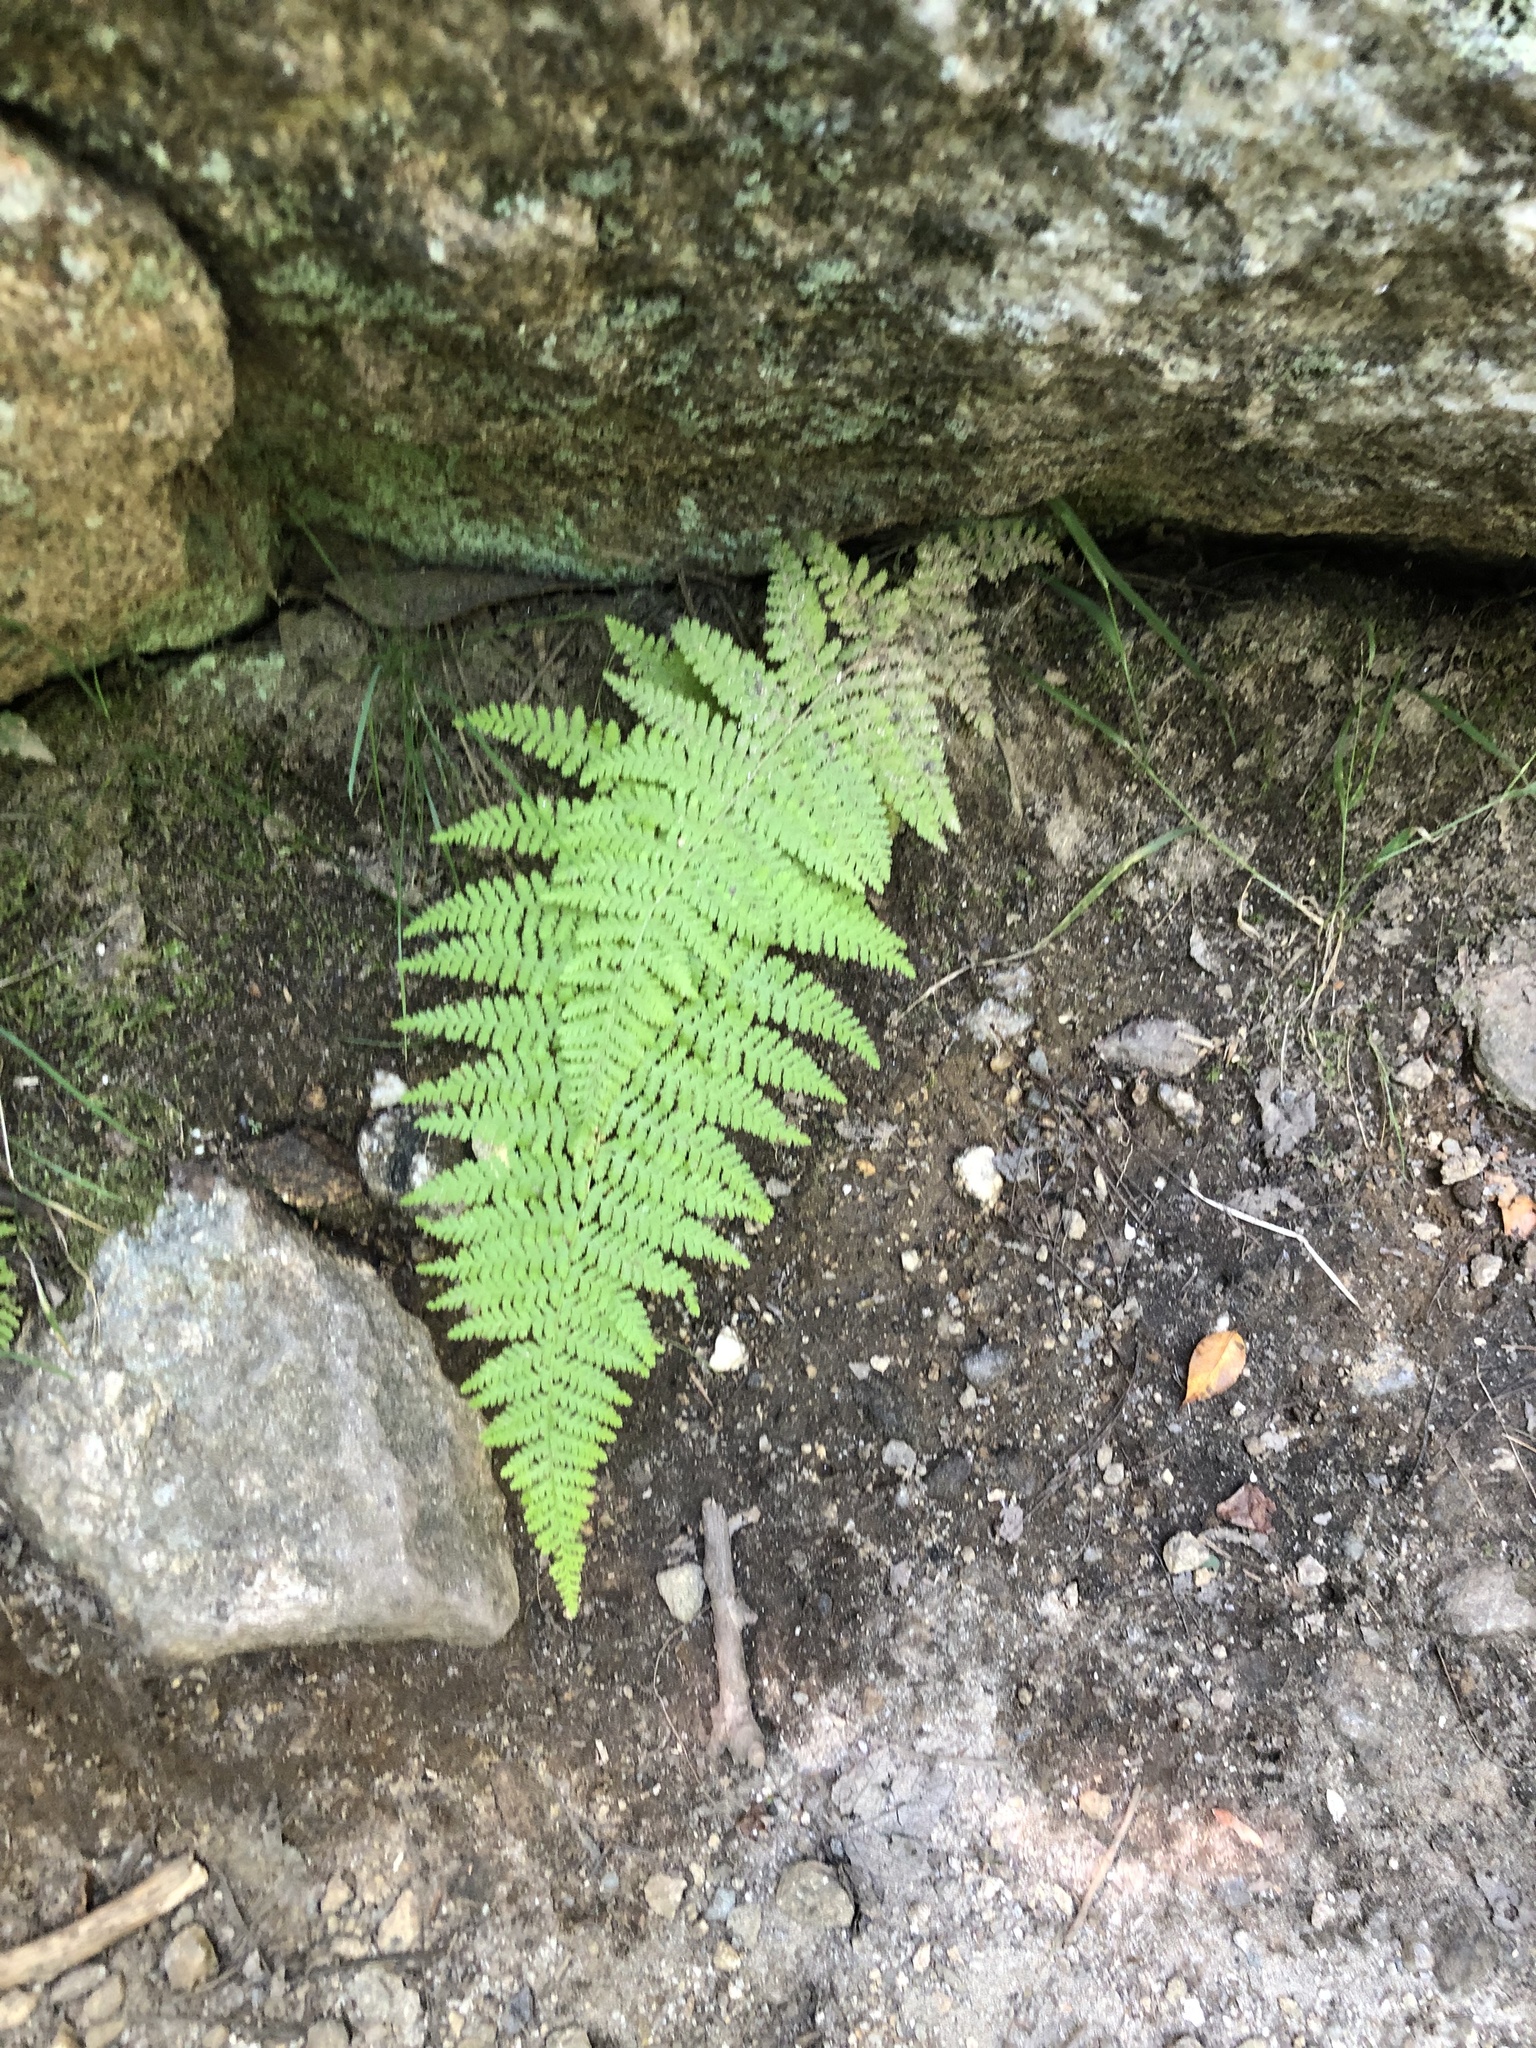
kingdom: Plantae
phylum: Tracheophyta
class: Polypodiopsida
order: Polypodiales
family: Dennstaedtiaceae
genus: Sitobolium
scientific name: Sitobolium punctilobum
